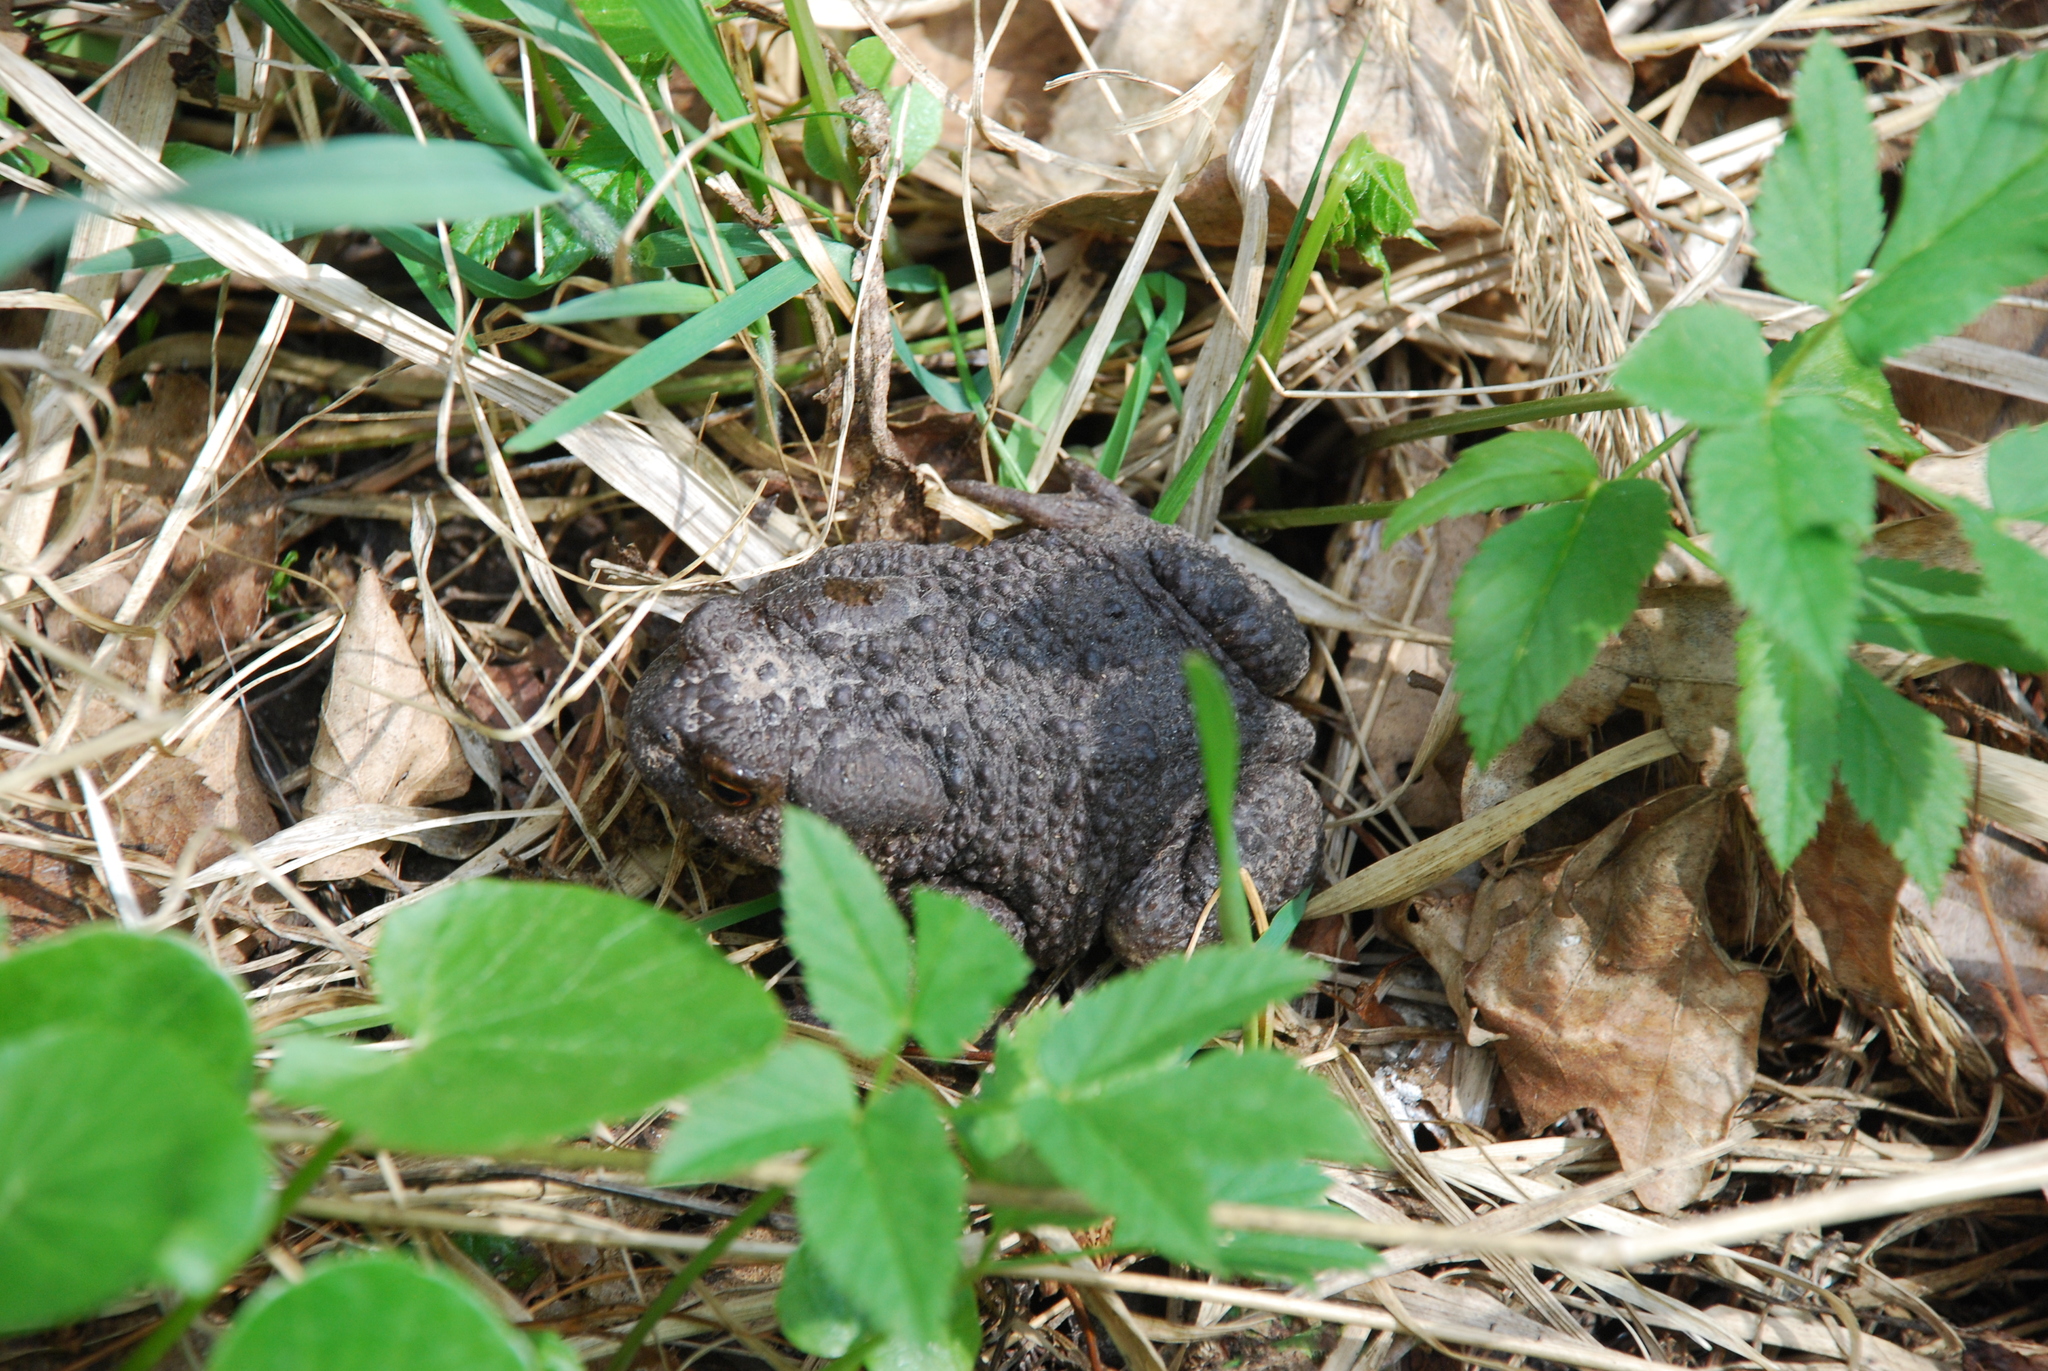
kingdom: Animalia
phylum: Chordata
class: Amphibia
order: Anura
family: Bufonidae
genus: Bufo
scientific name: Bufo bufo
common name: Common toad
